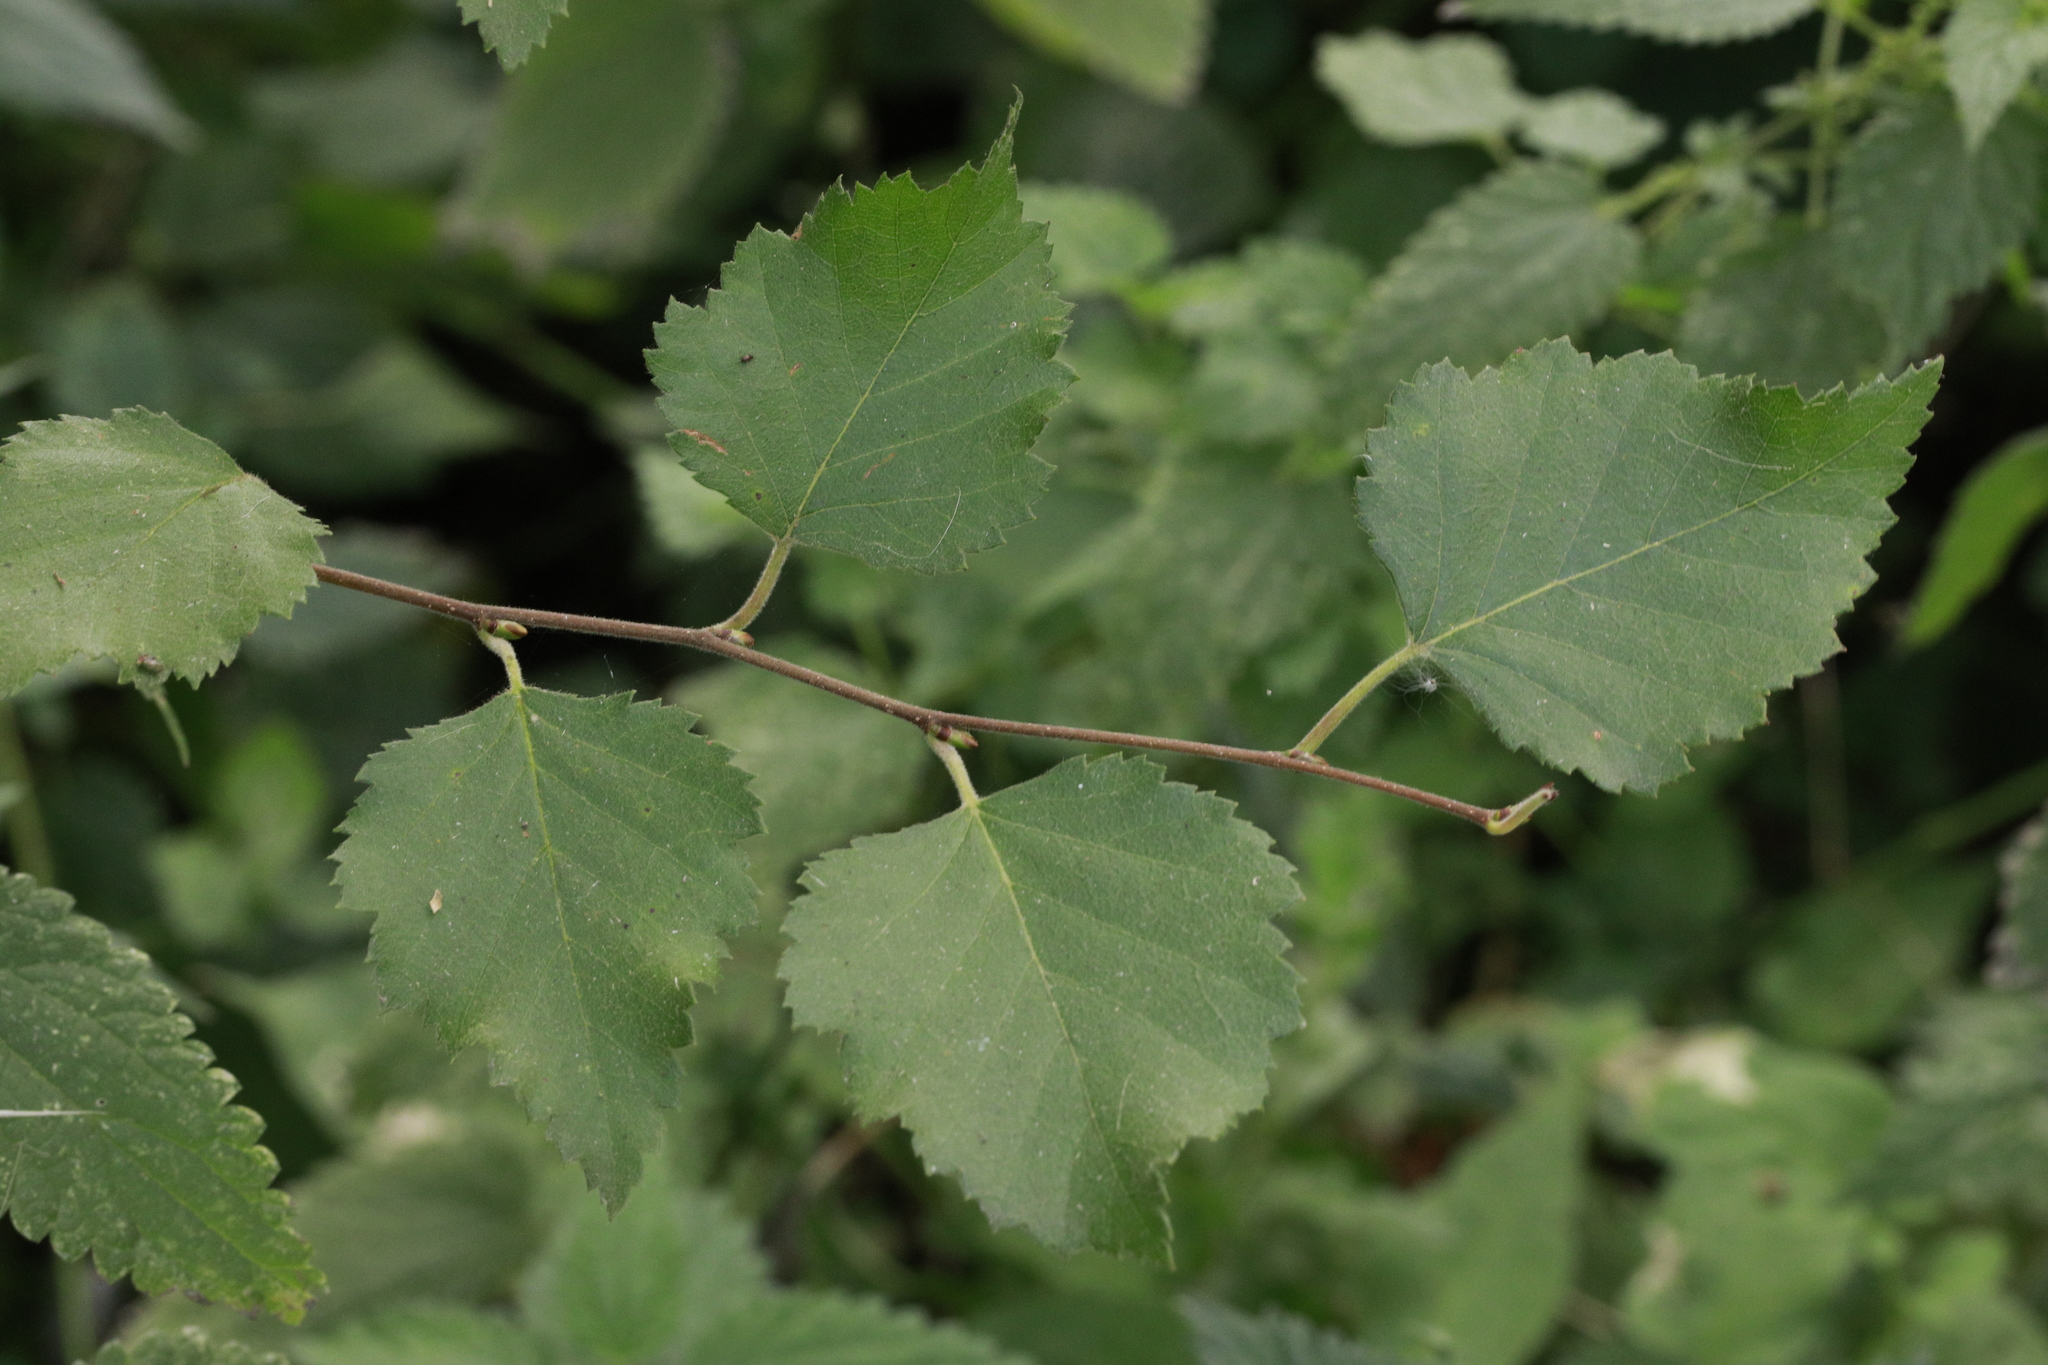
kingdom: Plantae
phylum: Tracheophyta
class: Magnoliopsida
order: Fagales
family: Betulaceae
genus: Betula
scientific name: Betula pendula
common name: Silver birch
